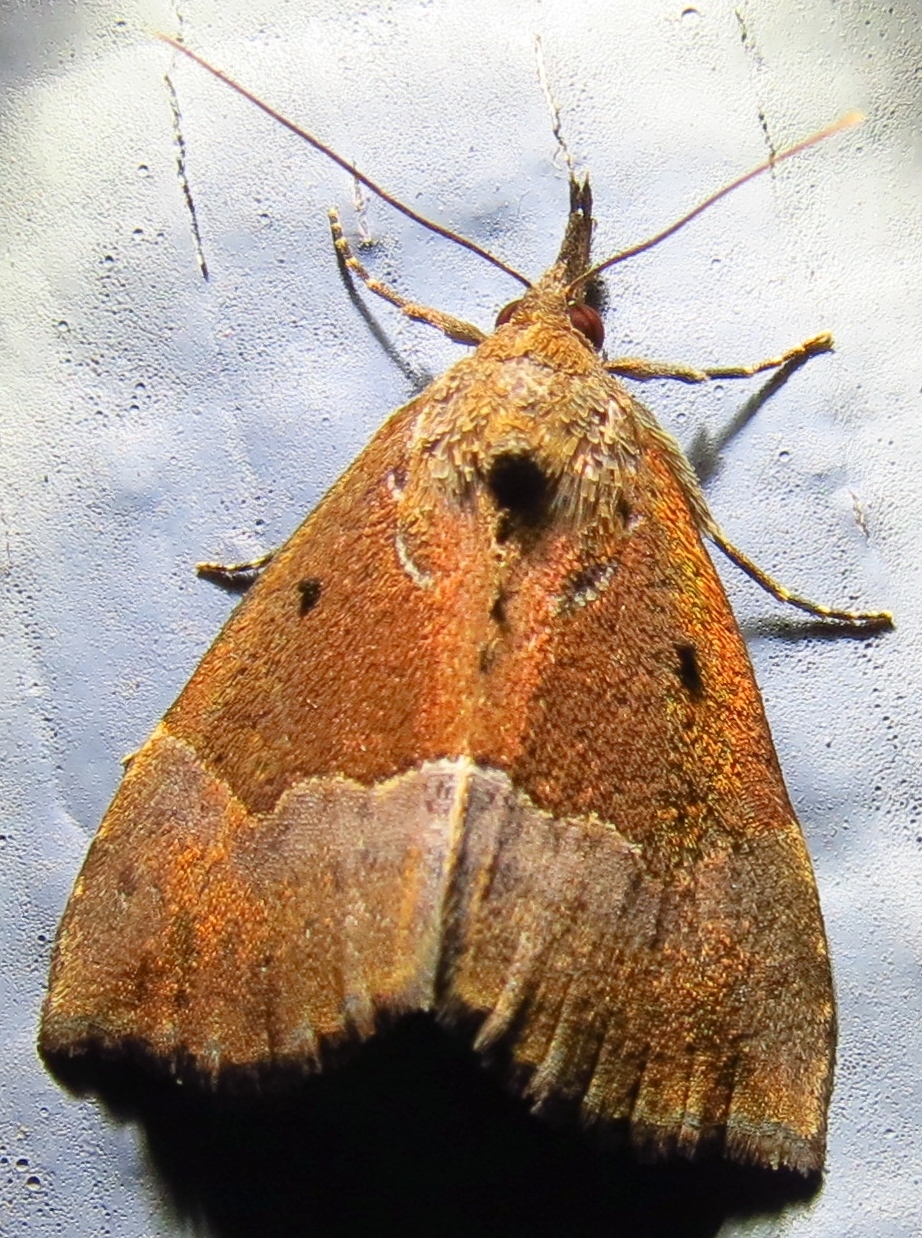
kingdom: Animalia
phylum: Arthropoda
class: Insecta
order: Lepidoptera
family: Erebidae
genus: Hypena
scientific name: Hypena bijugalis
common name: Dimorphic bomolocha moth
